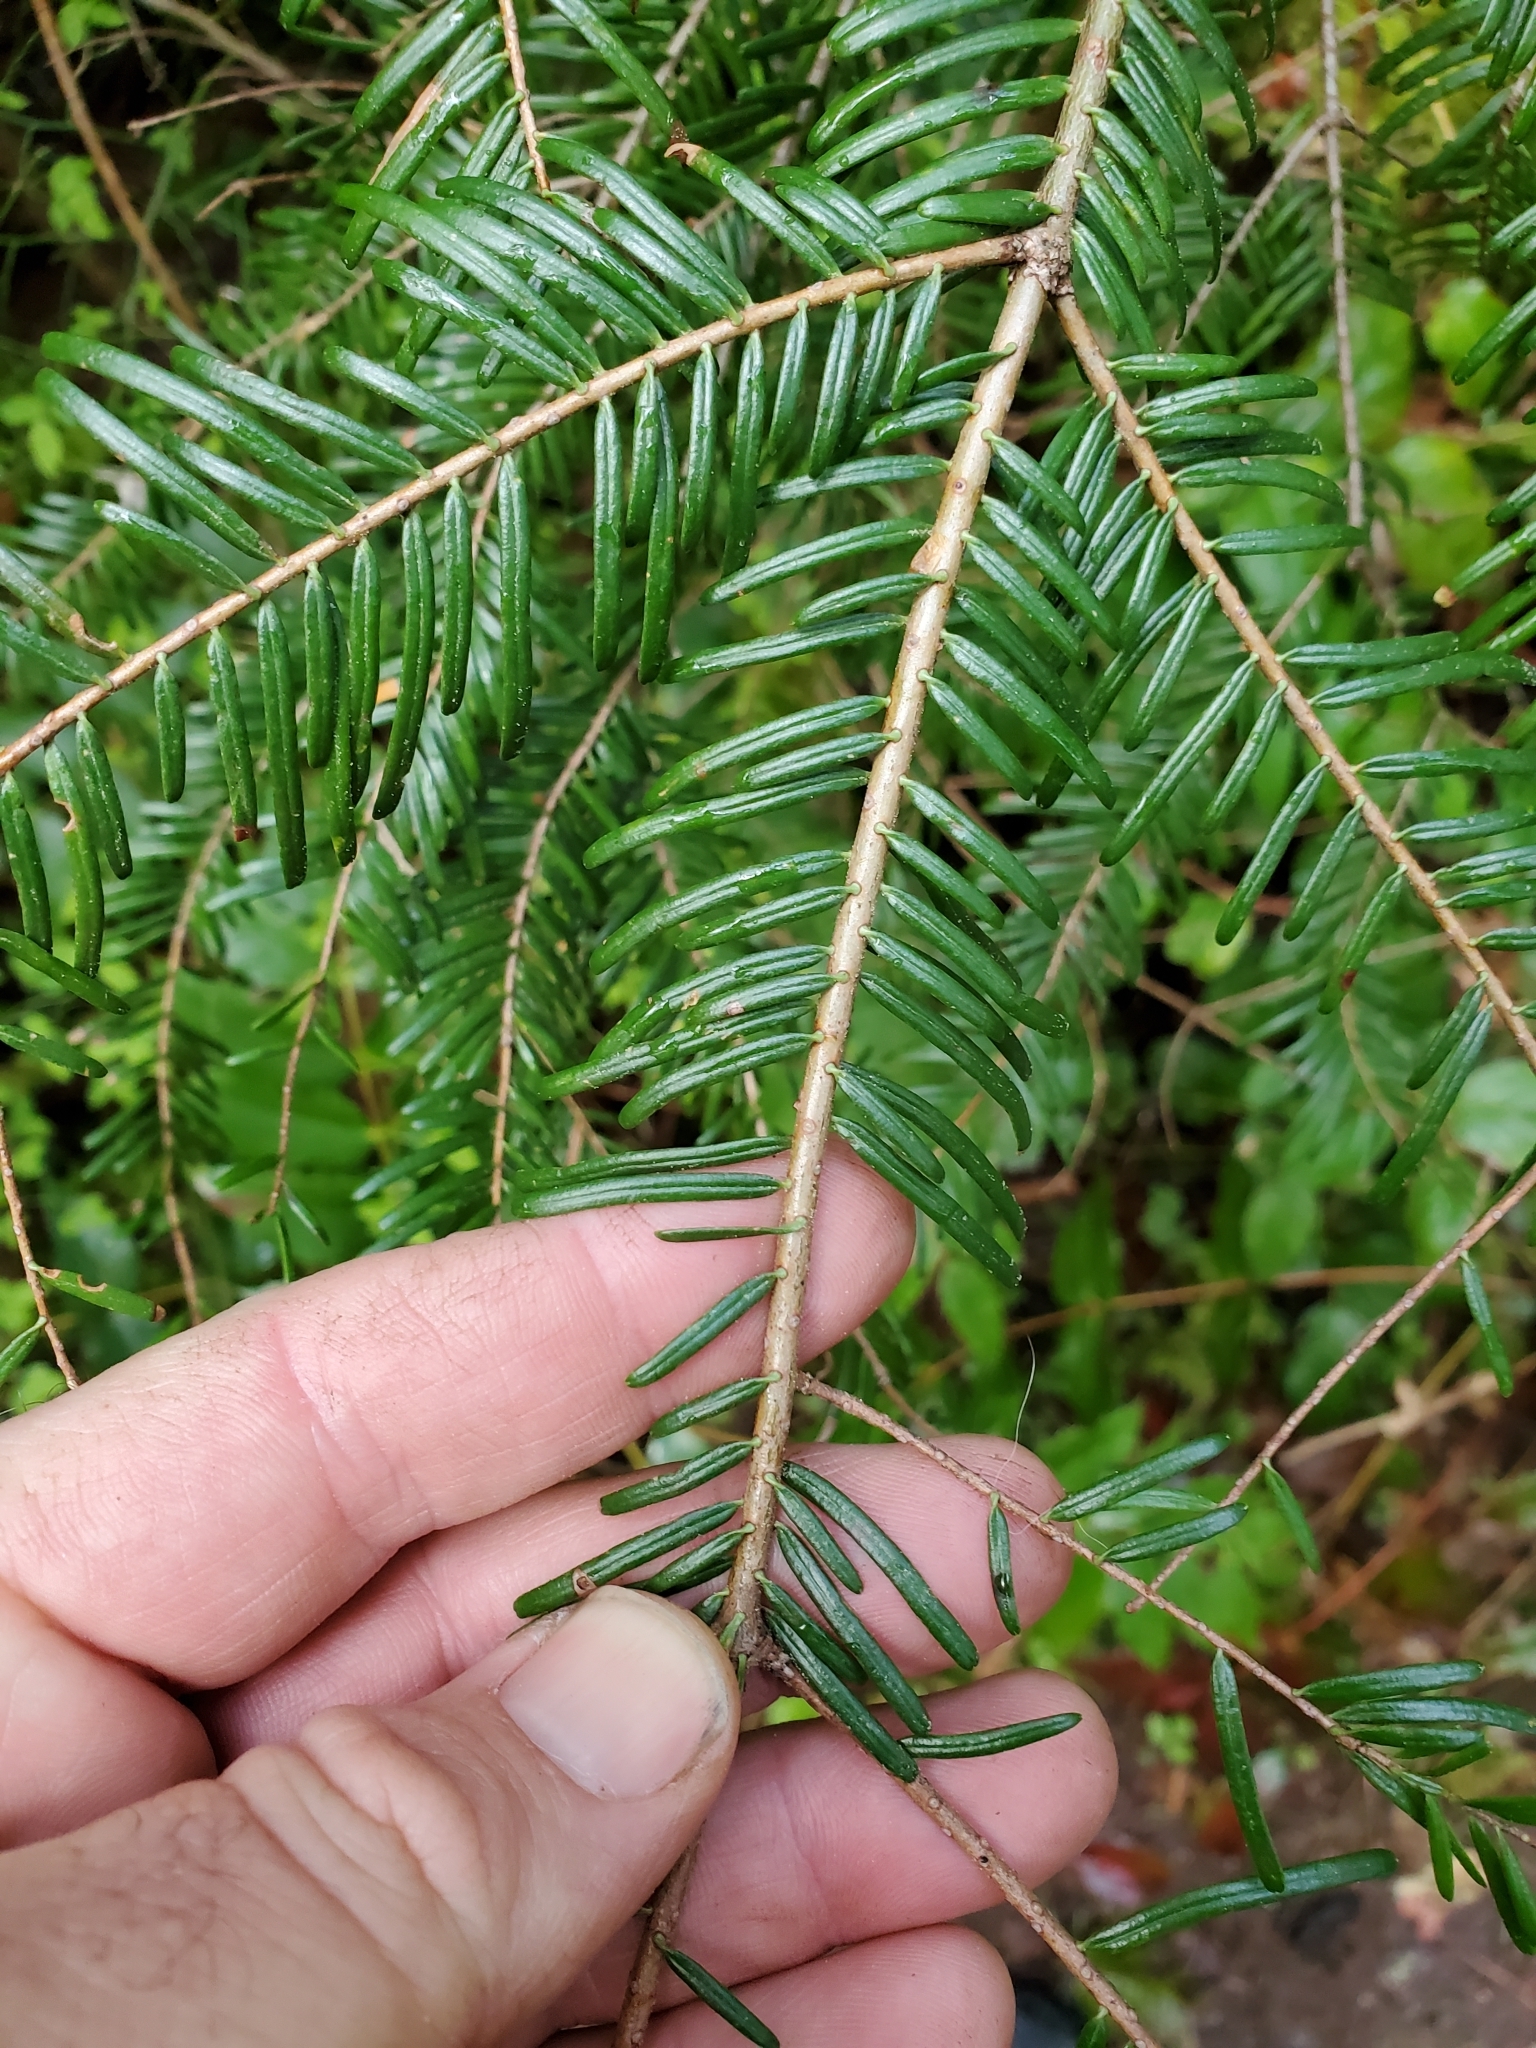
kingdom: Plantae
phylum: Tracheophyta
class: Pinopsida
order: Pinales
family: Pinaceae
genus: Abies
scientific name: Abies grandis
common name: Giant fir
